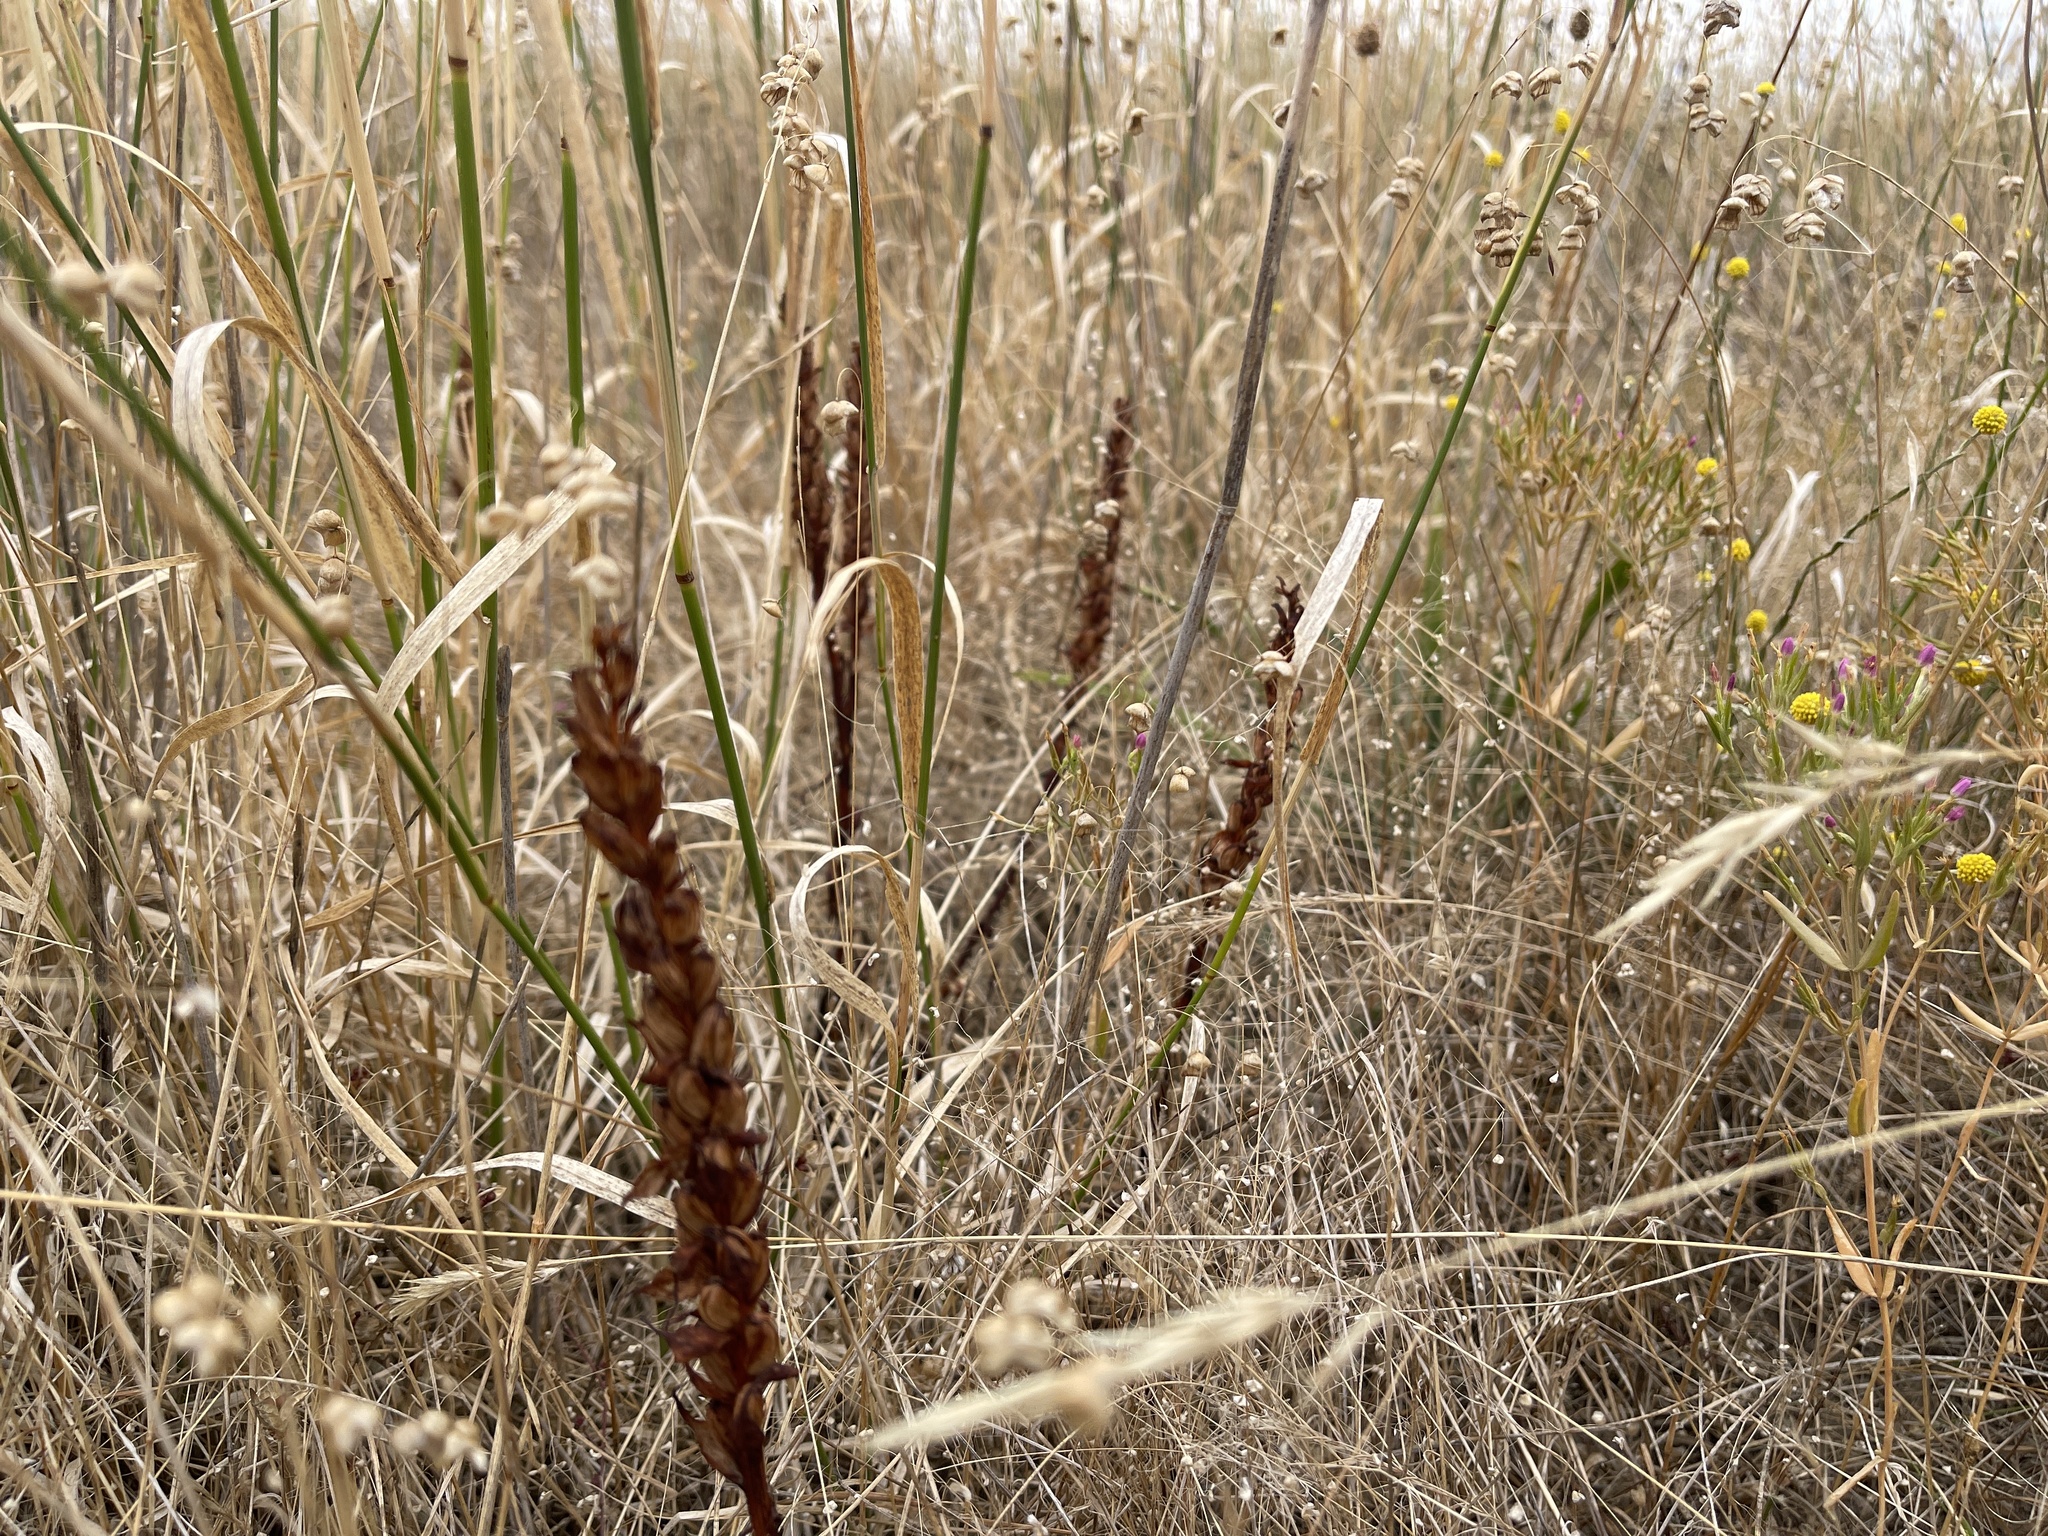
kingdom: Plantae
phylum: Tracheophyta
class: Liliopsida
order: Asparagales
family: Orchidaceae
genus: Disa
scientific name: Disa bracteata
